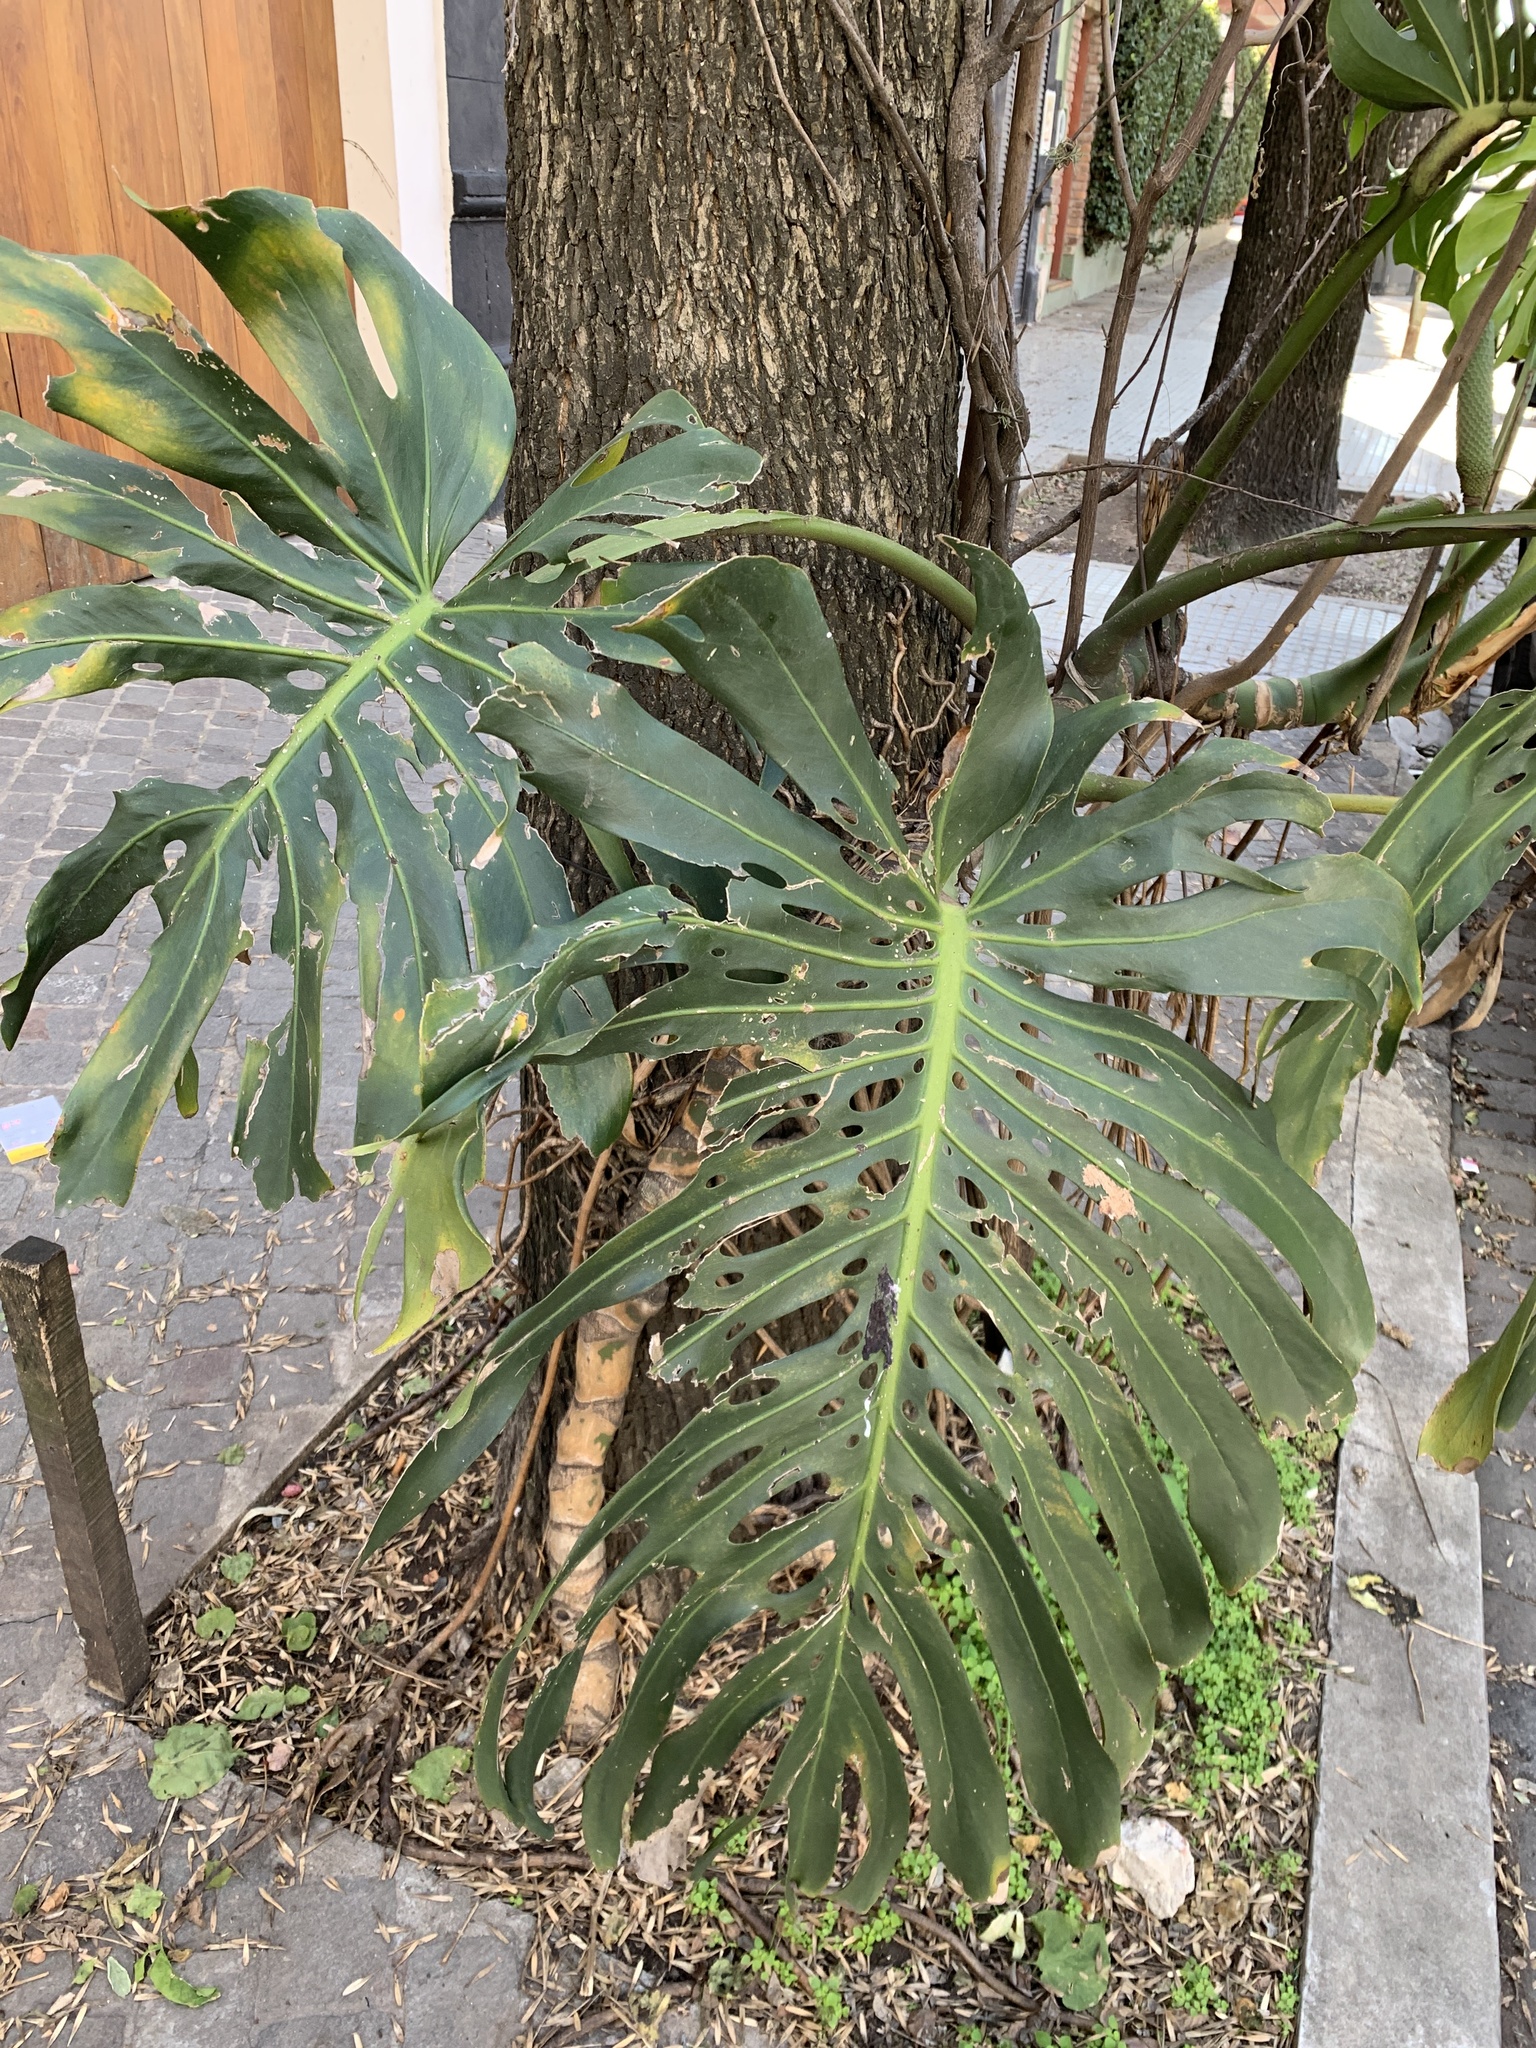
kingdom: Plantae
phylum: Tracheophyta
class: Liliopsida
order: Alismatales
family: Araceae
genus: Monstera
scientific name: Monstera deliciosa
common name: Cut-leaf-philodendron
